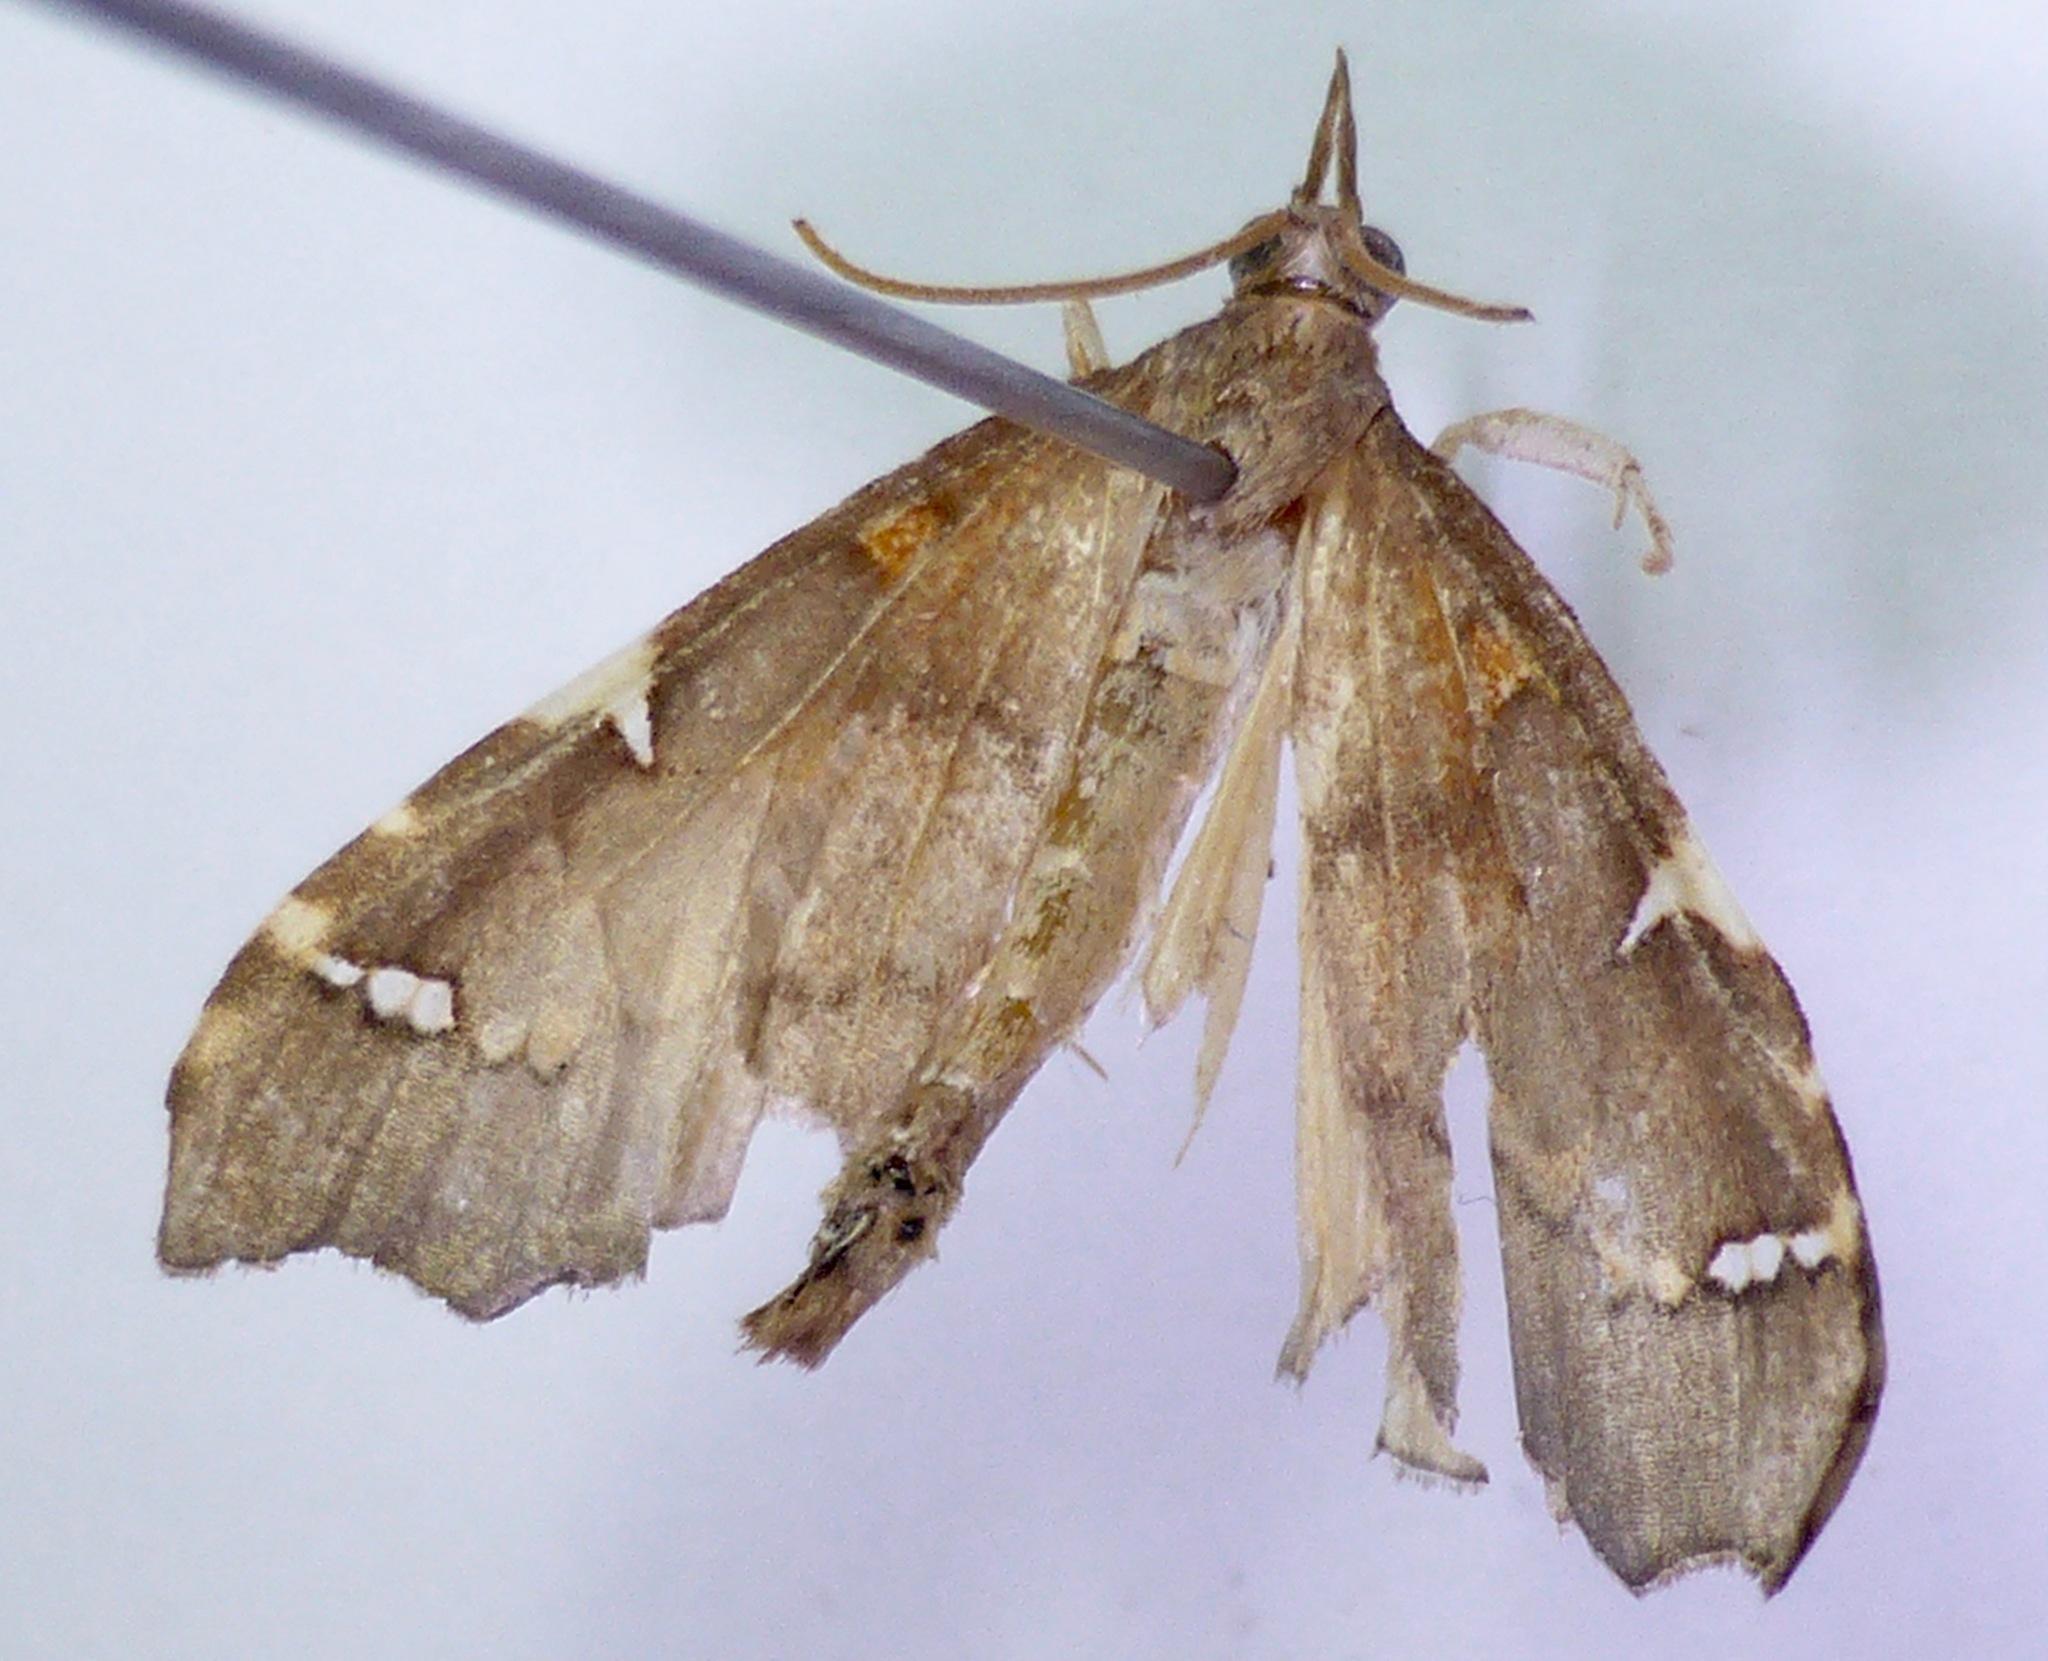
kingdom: Animalia
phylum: Arthropoda
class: Insecta
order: Lepidoptera
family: Crambidae
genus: Deana
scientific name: Deana hybreasalis
